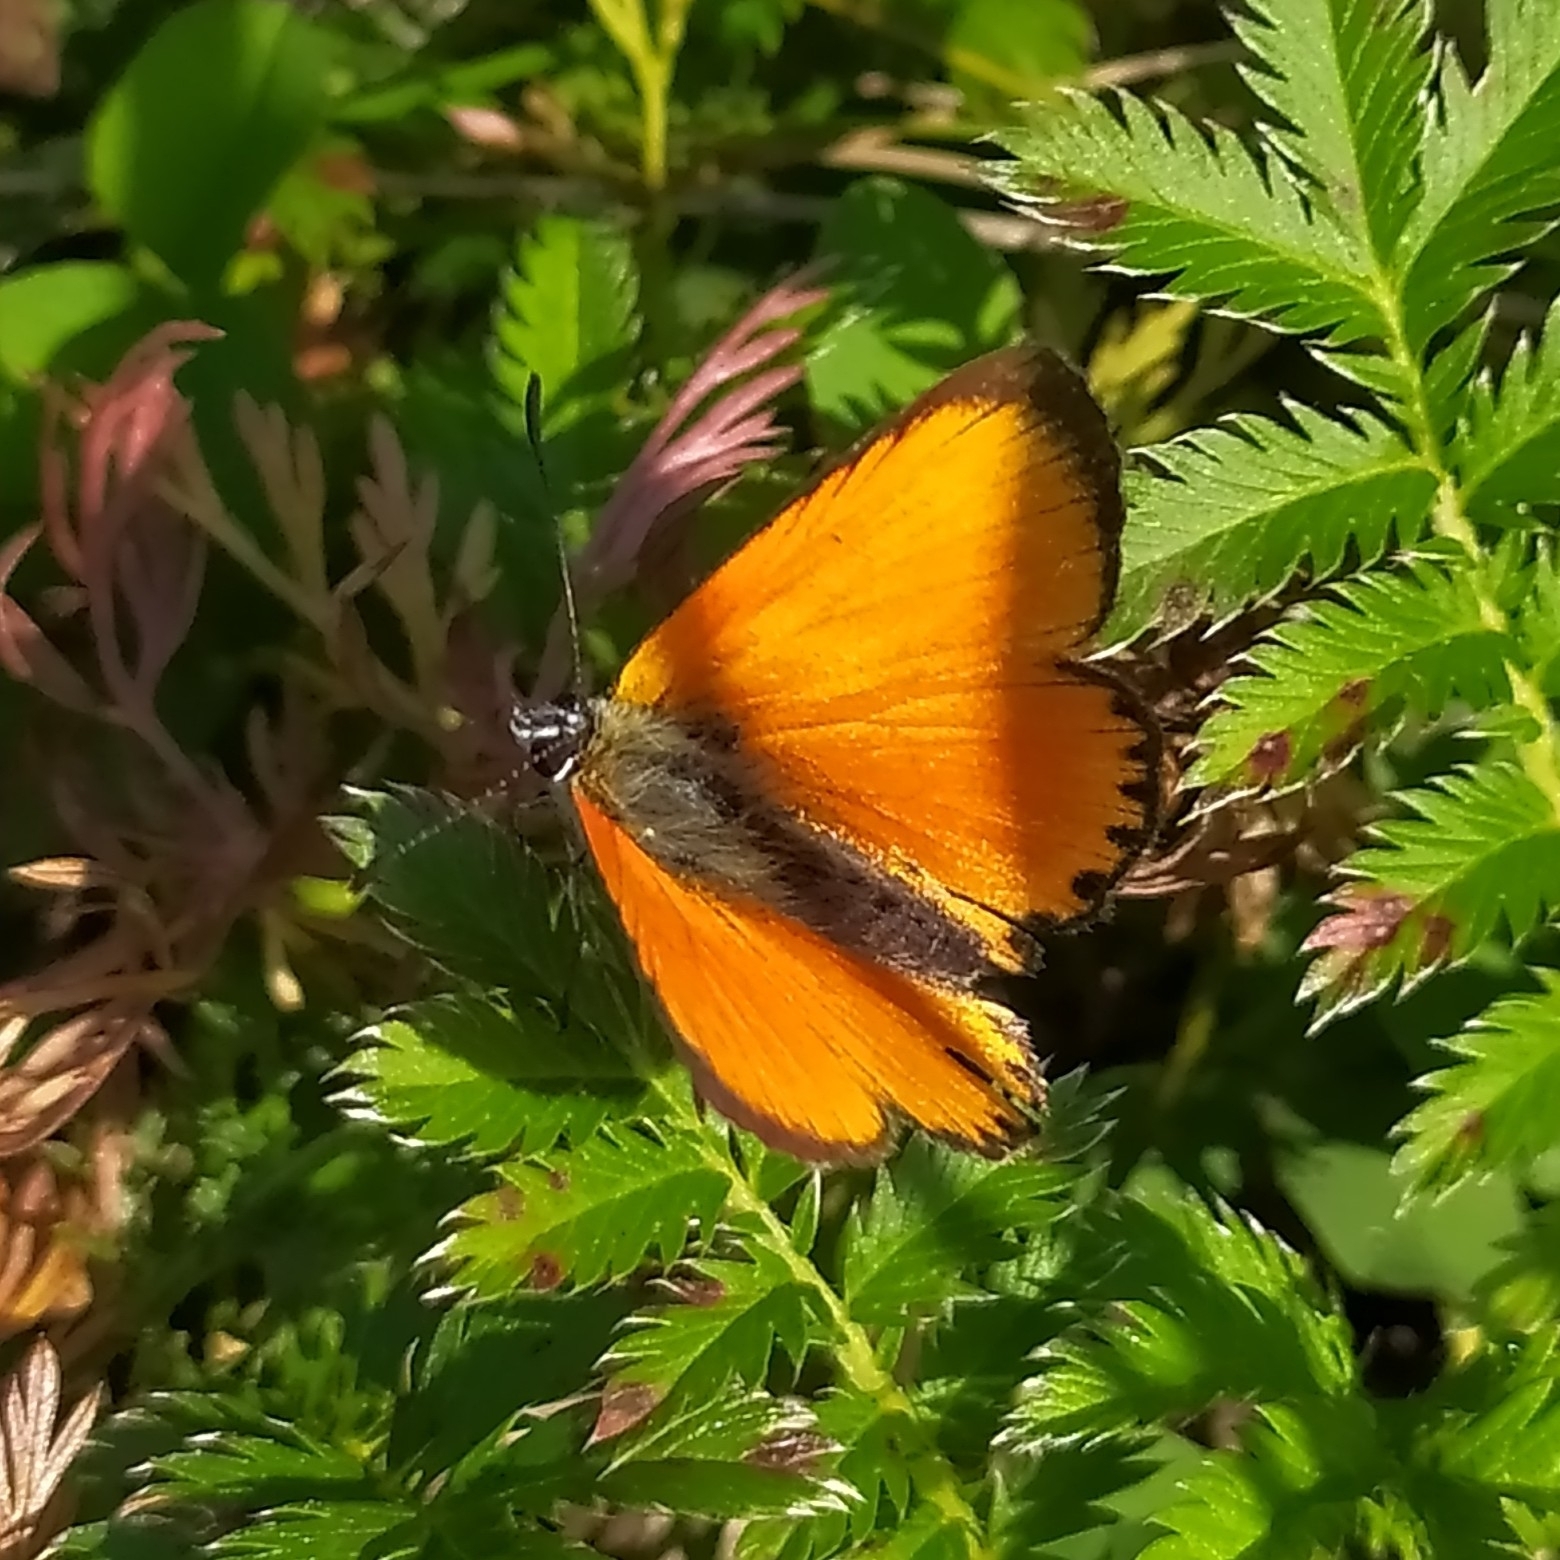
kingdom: Animalia
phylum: Arthropoda
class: Insecta
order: Lepidoptera
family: Lycaenidae
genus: Lycaena
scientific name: Lycaena virgaureae
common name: Scarce copper
